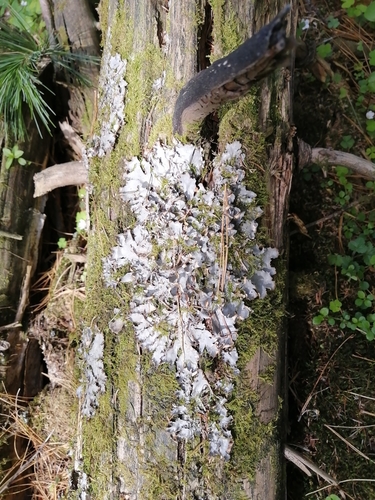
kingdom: Fungi
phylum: Ascomycota
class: Lecanoromycetes
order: Peltigerales
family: Peltigeraceae
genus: Peltigera
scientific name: Peltigera
